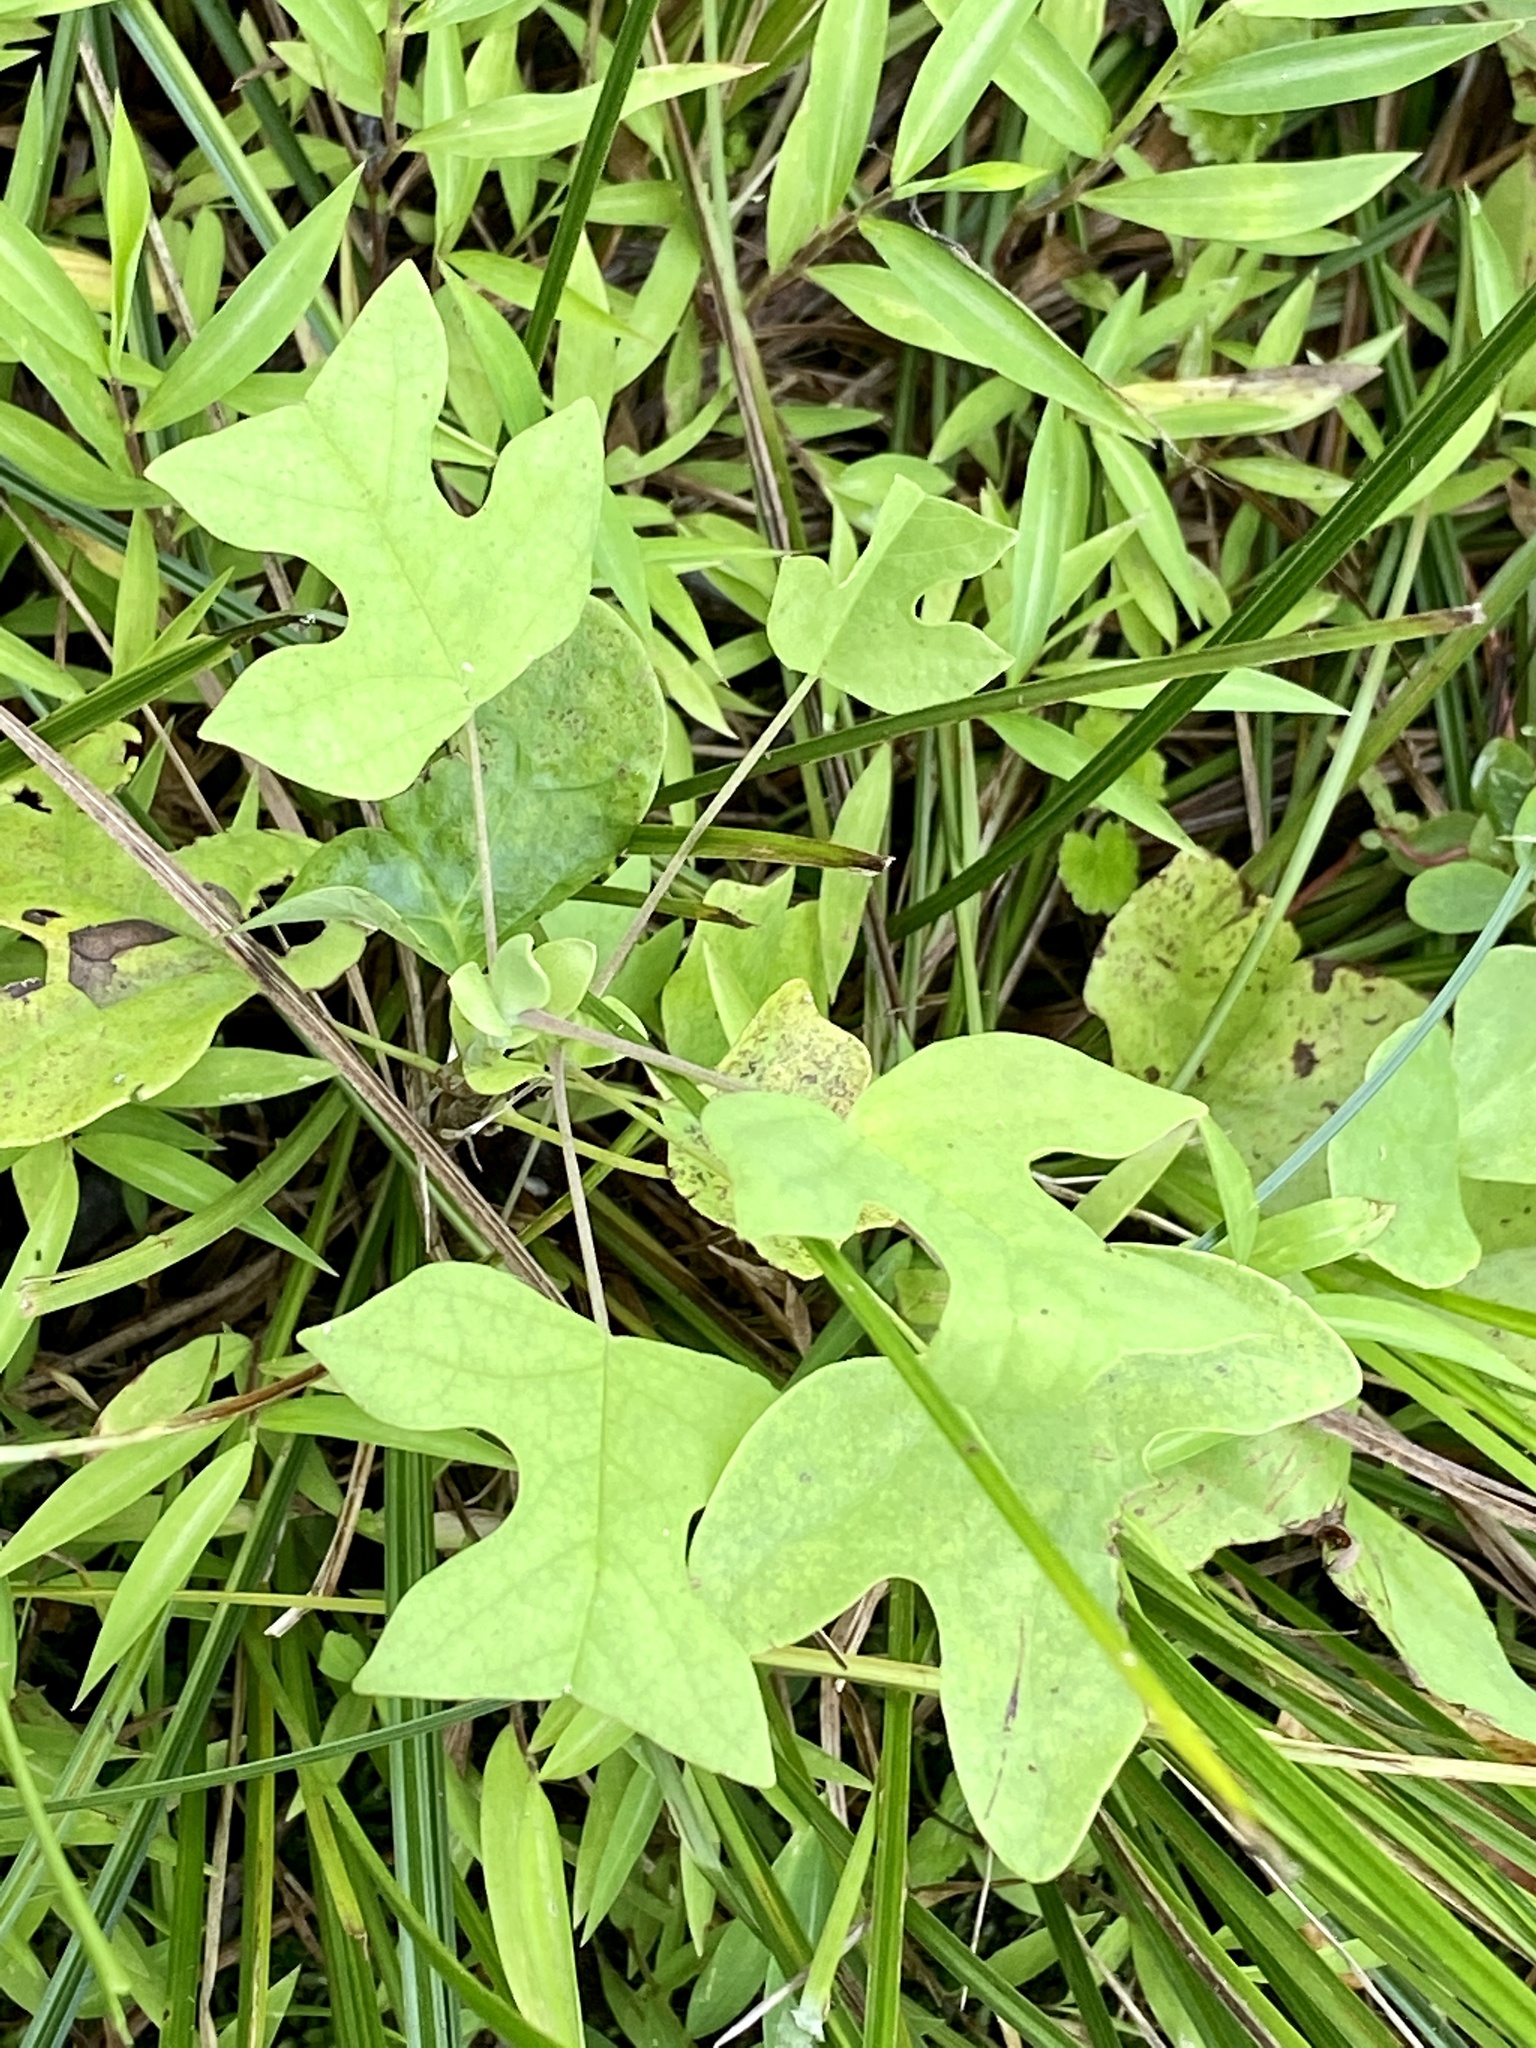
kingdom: Plantae
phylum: Tracheophyta
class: Magnoliopsida
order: Magnoliales
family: Magnoliaceae
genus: Liriodendron
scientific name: Liriodendron tulipifera
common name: Tulip tree
